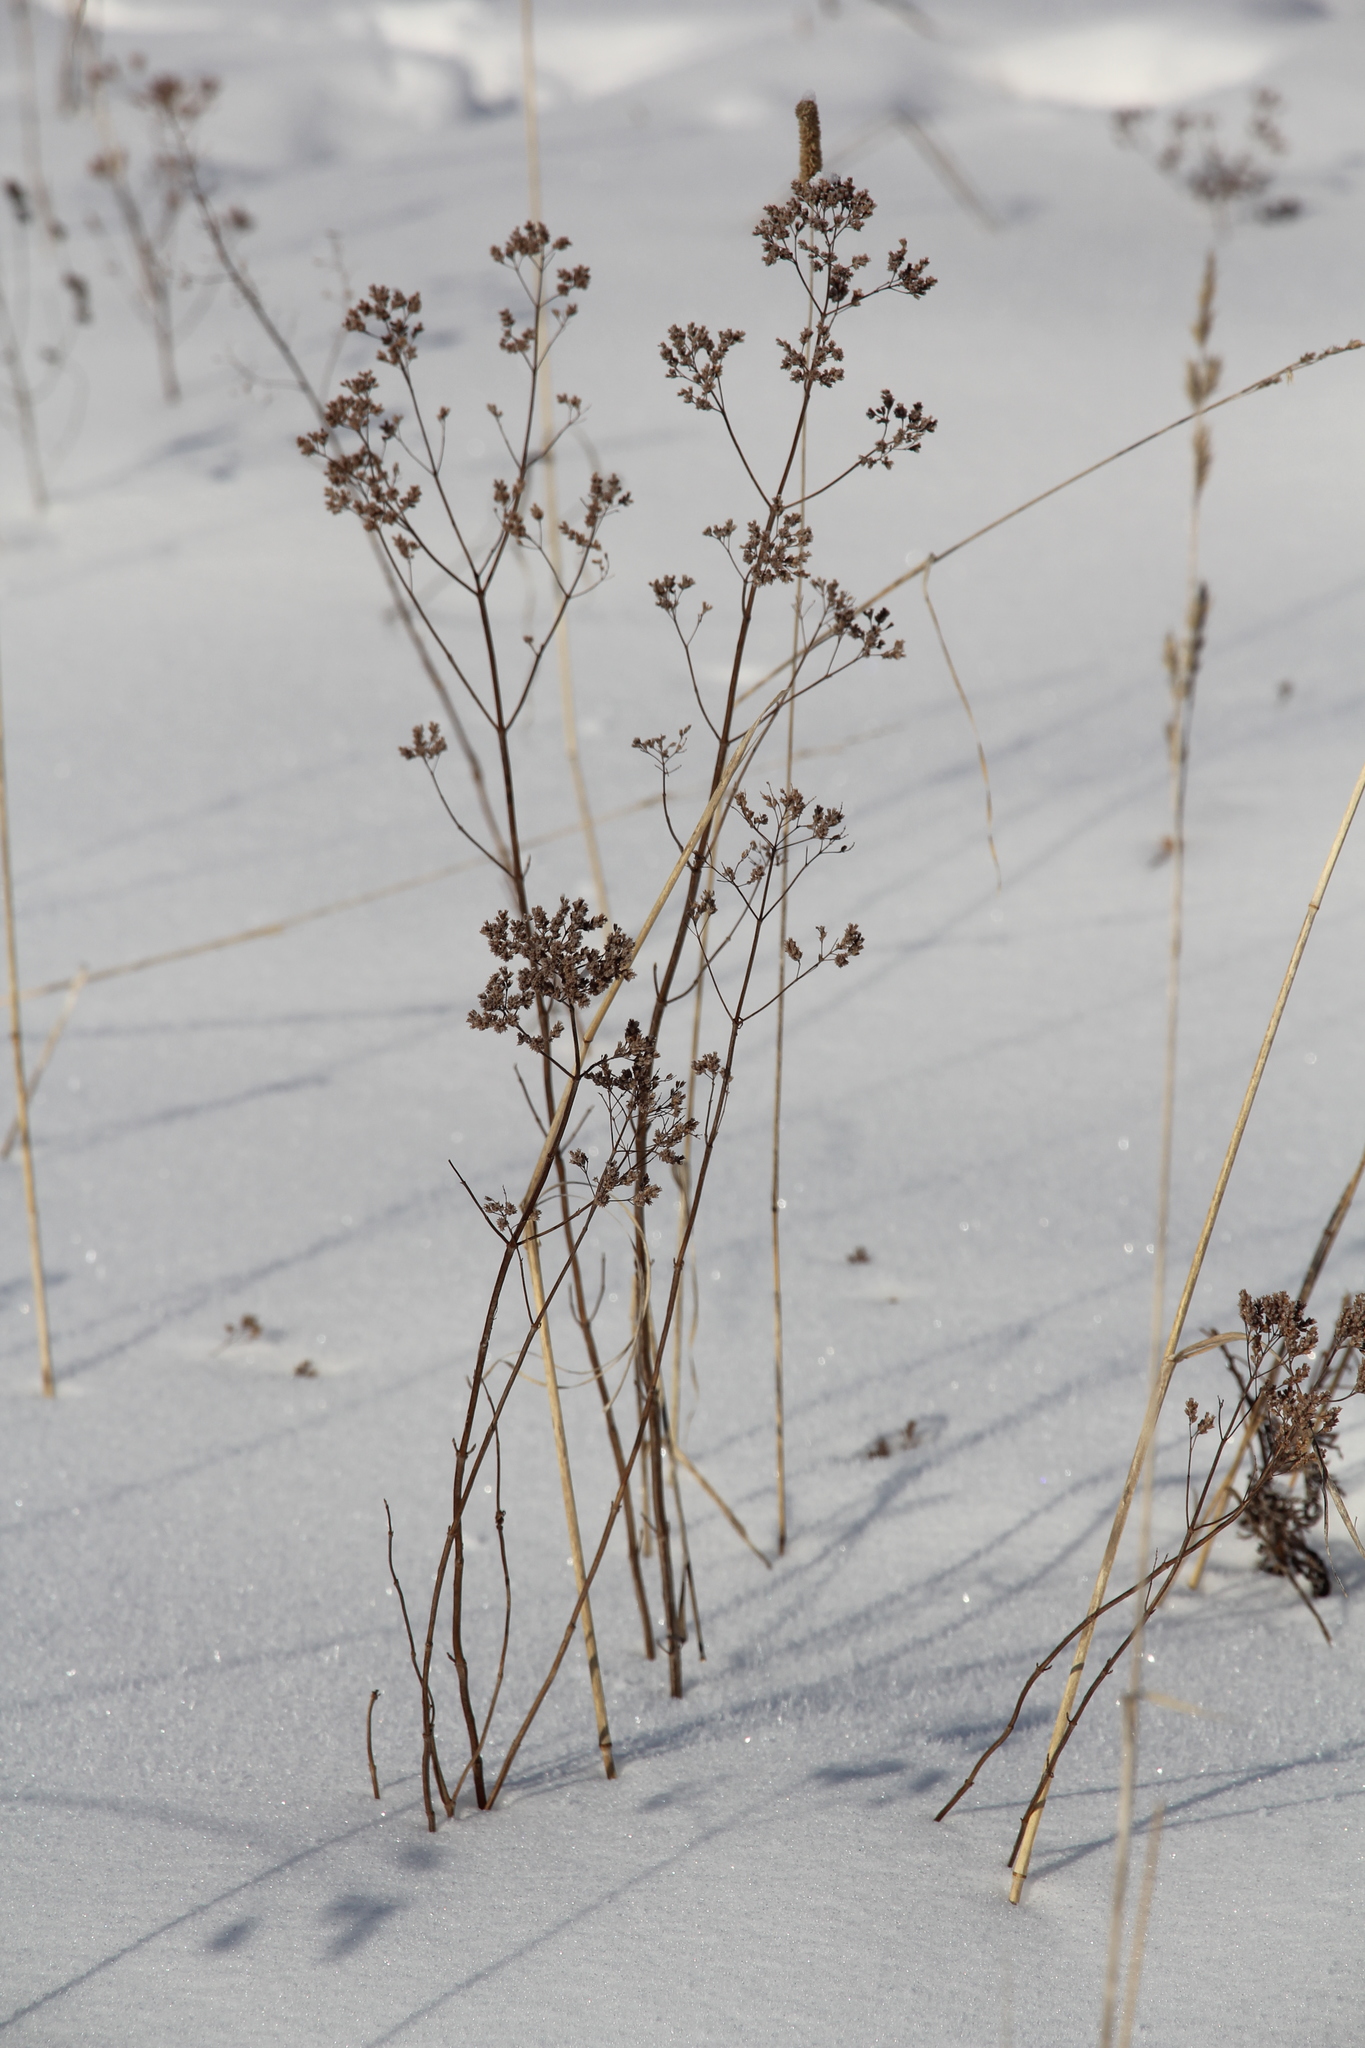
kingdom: Plantae
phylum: Tracheophyta
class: Magnoliopsida
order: Lamiales
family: Lamiaceae
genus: Origanum
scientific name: Origanum vulgare
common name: Wild marjoram
